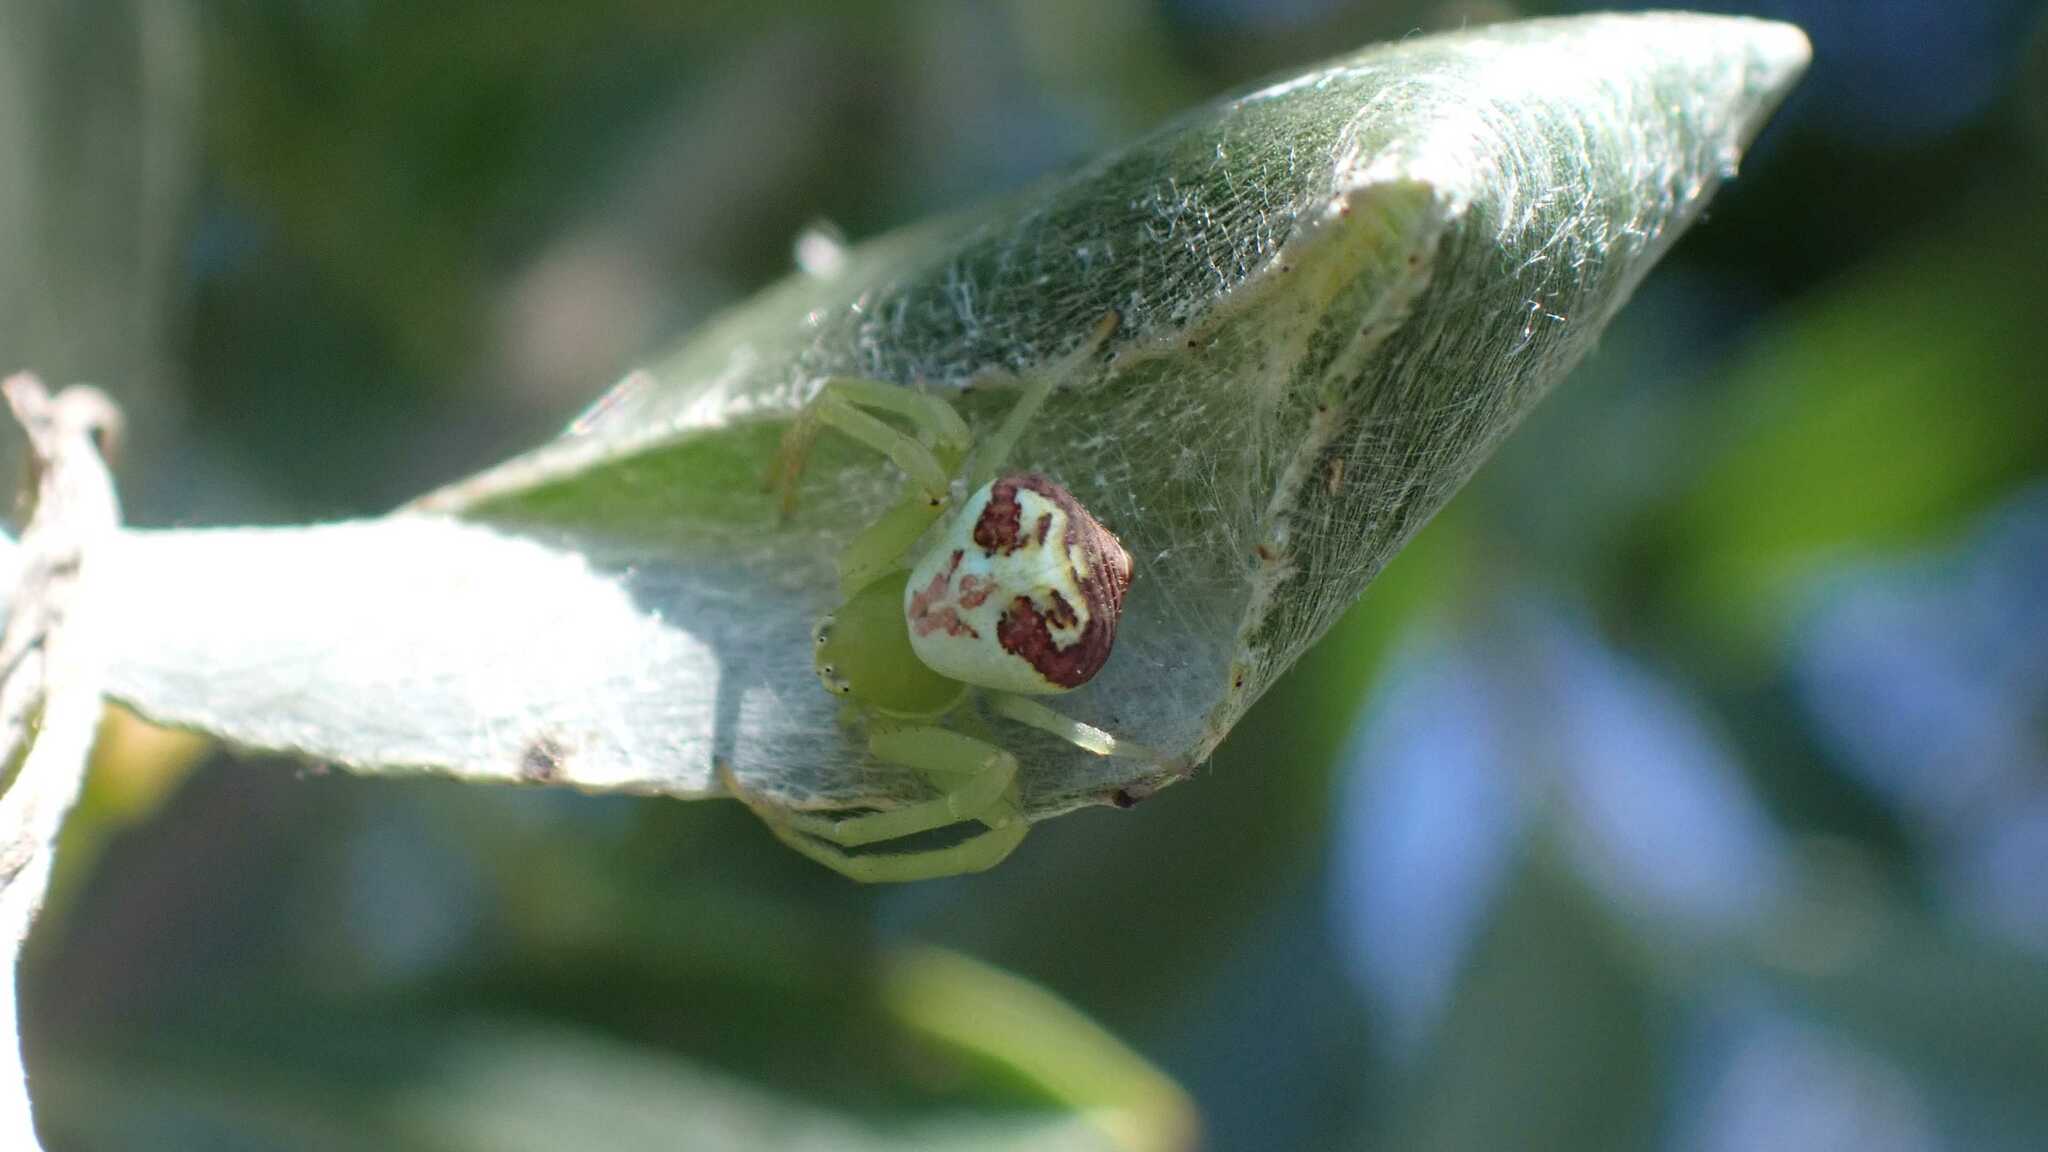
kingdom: Animalia
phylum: Arthropoda
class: Arachnida
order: Araneae
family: Thomisidae
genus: Ebrechtella
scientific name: Ebrechtella tricuspidata
